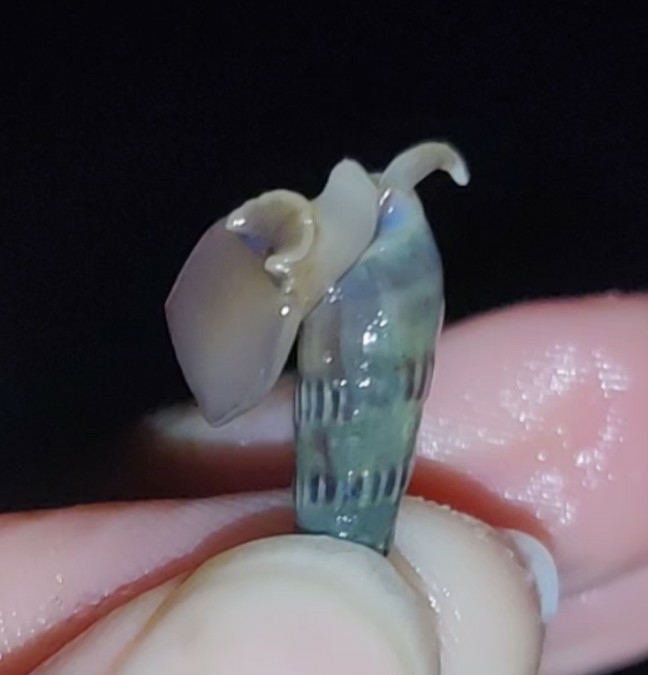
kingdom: Animalia
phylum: Mollusca
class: Gastropoda
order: Neogastropoda
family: Terebridae
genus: Hastula
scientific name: Hastula salleana
